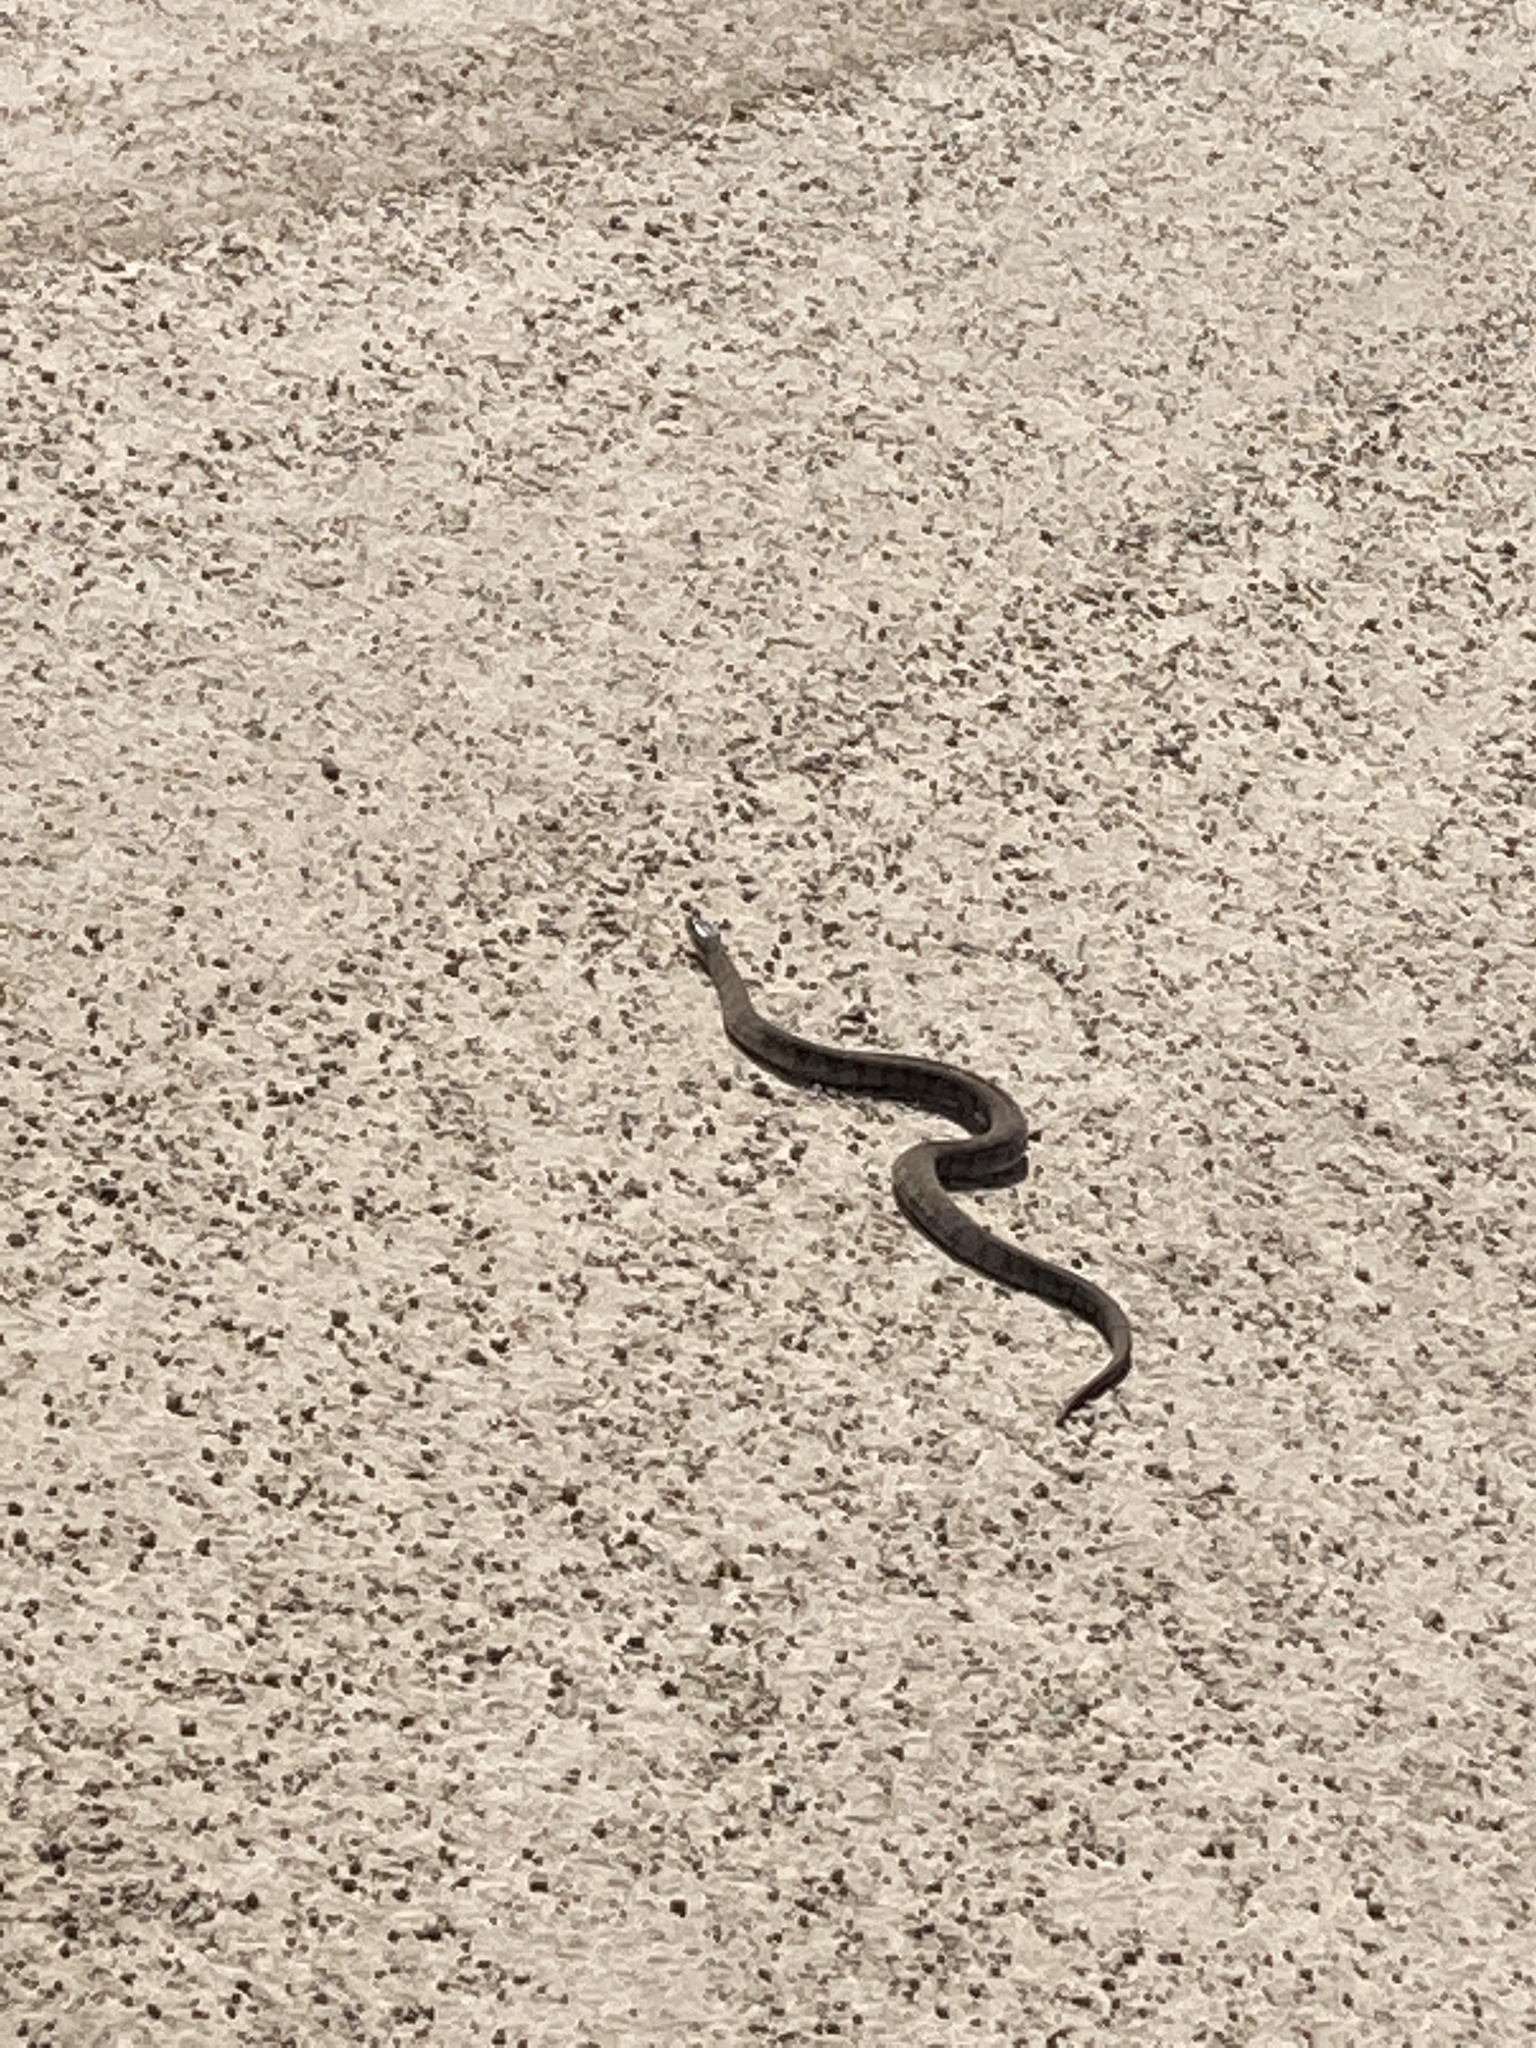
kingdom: Animalia
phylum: Chordata
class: Squamata
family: Colubridae
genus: Nerodia
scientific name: Nerodia sipedon
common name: Northern water snake
